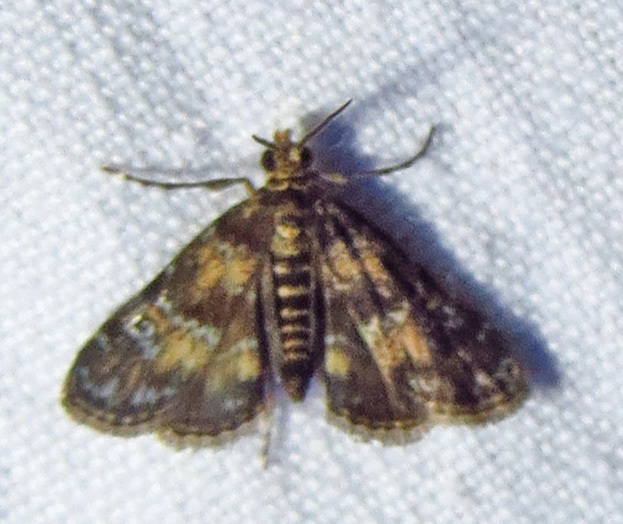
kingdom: Animalia
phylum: Arthropoda
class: Insecta
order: Lepidoptera
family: Crambidae
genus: Elophila
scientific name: Elophila obliteralis
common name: Waterlily leafcutter moth
